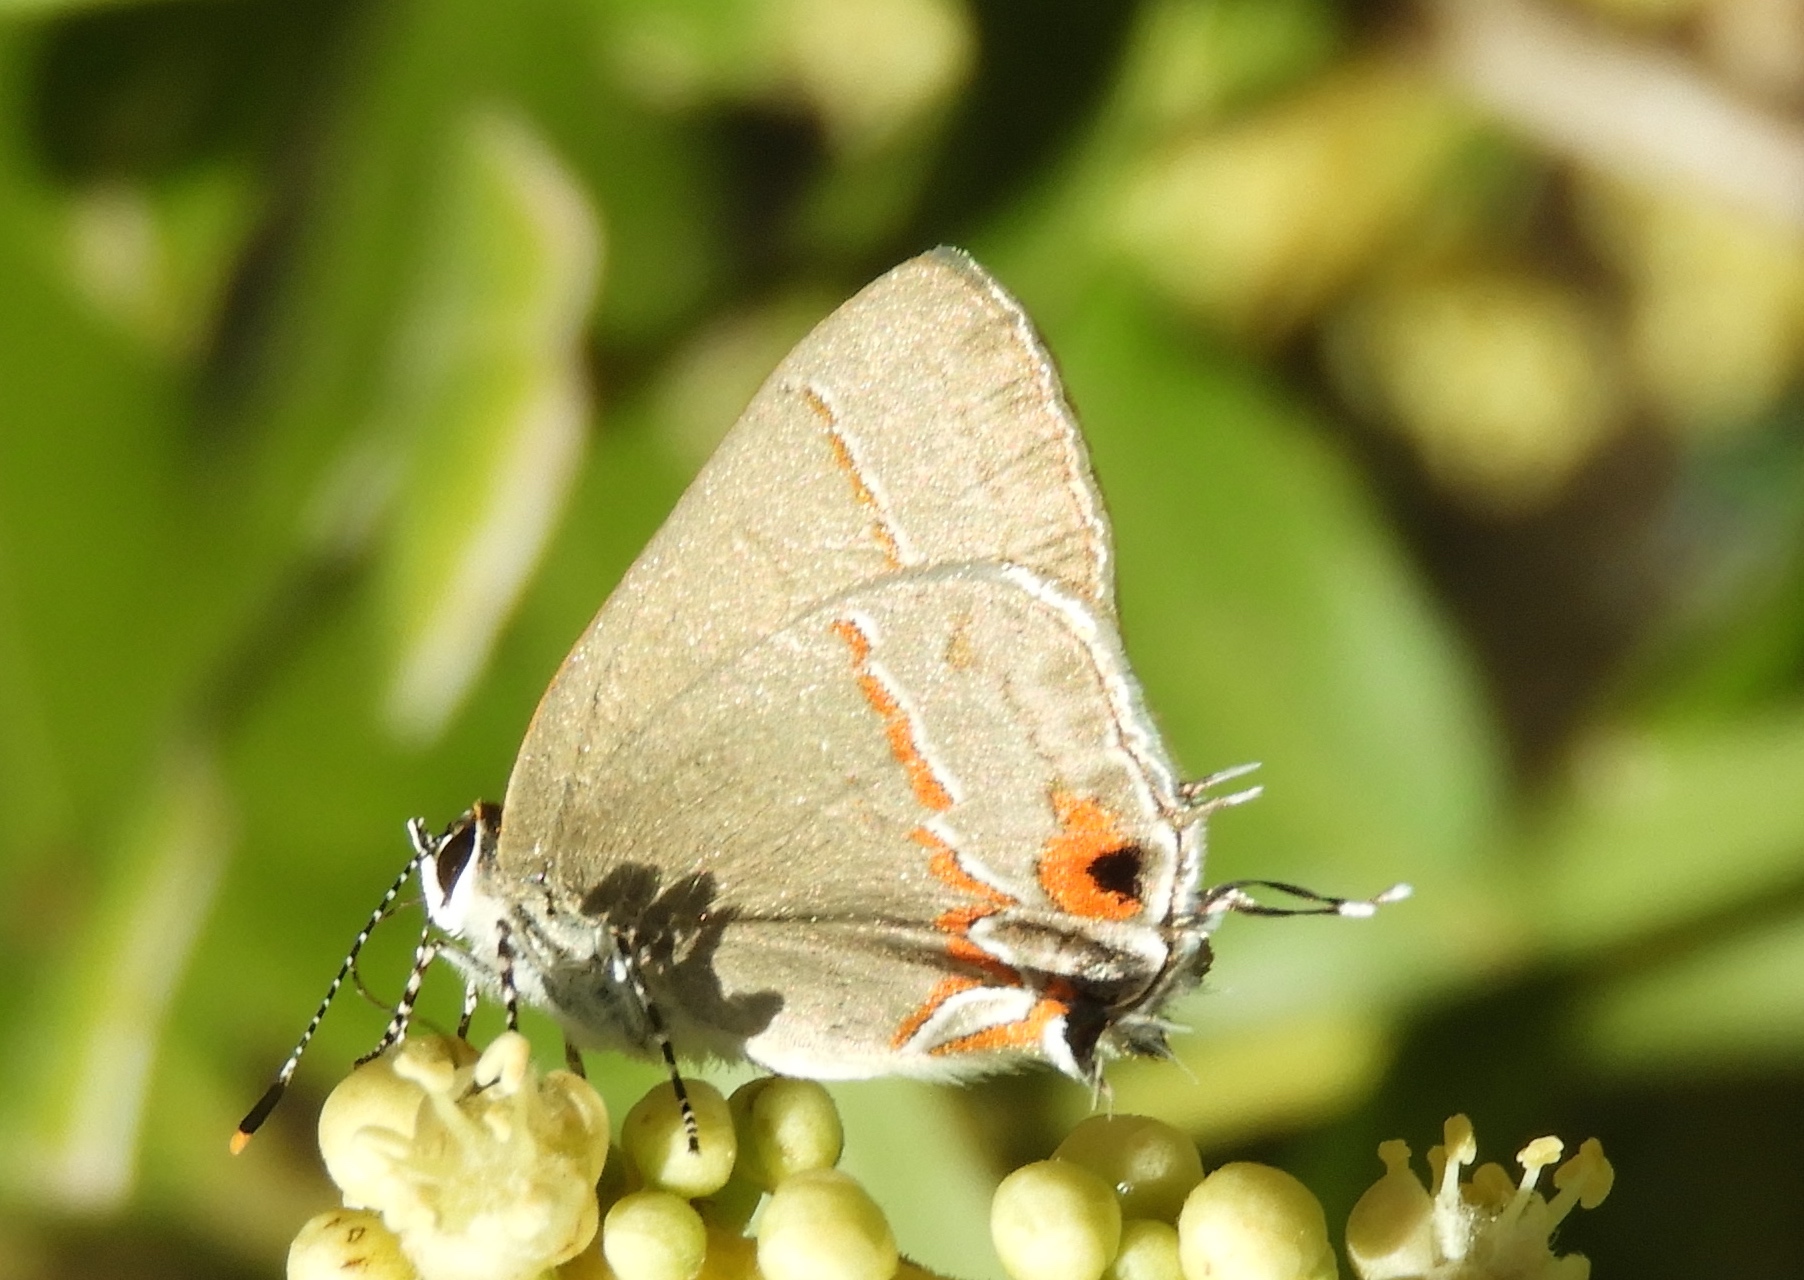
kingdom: Animalia
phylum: Arthropoda
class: Insecta
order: Lepidoptera
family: Lycaenidae
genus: Electrostrymon
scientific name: Electrostrymon endymion
